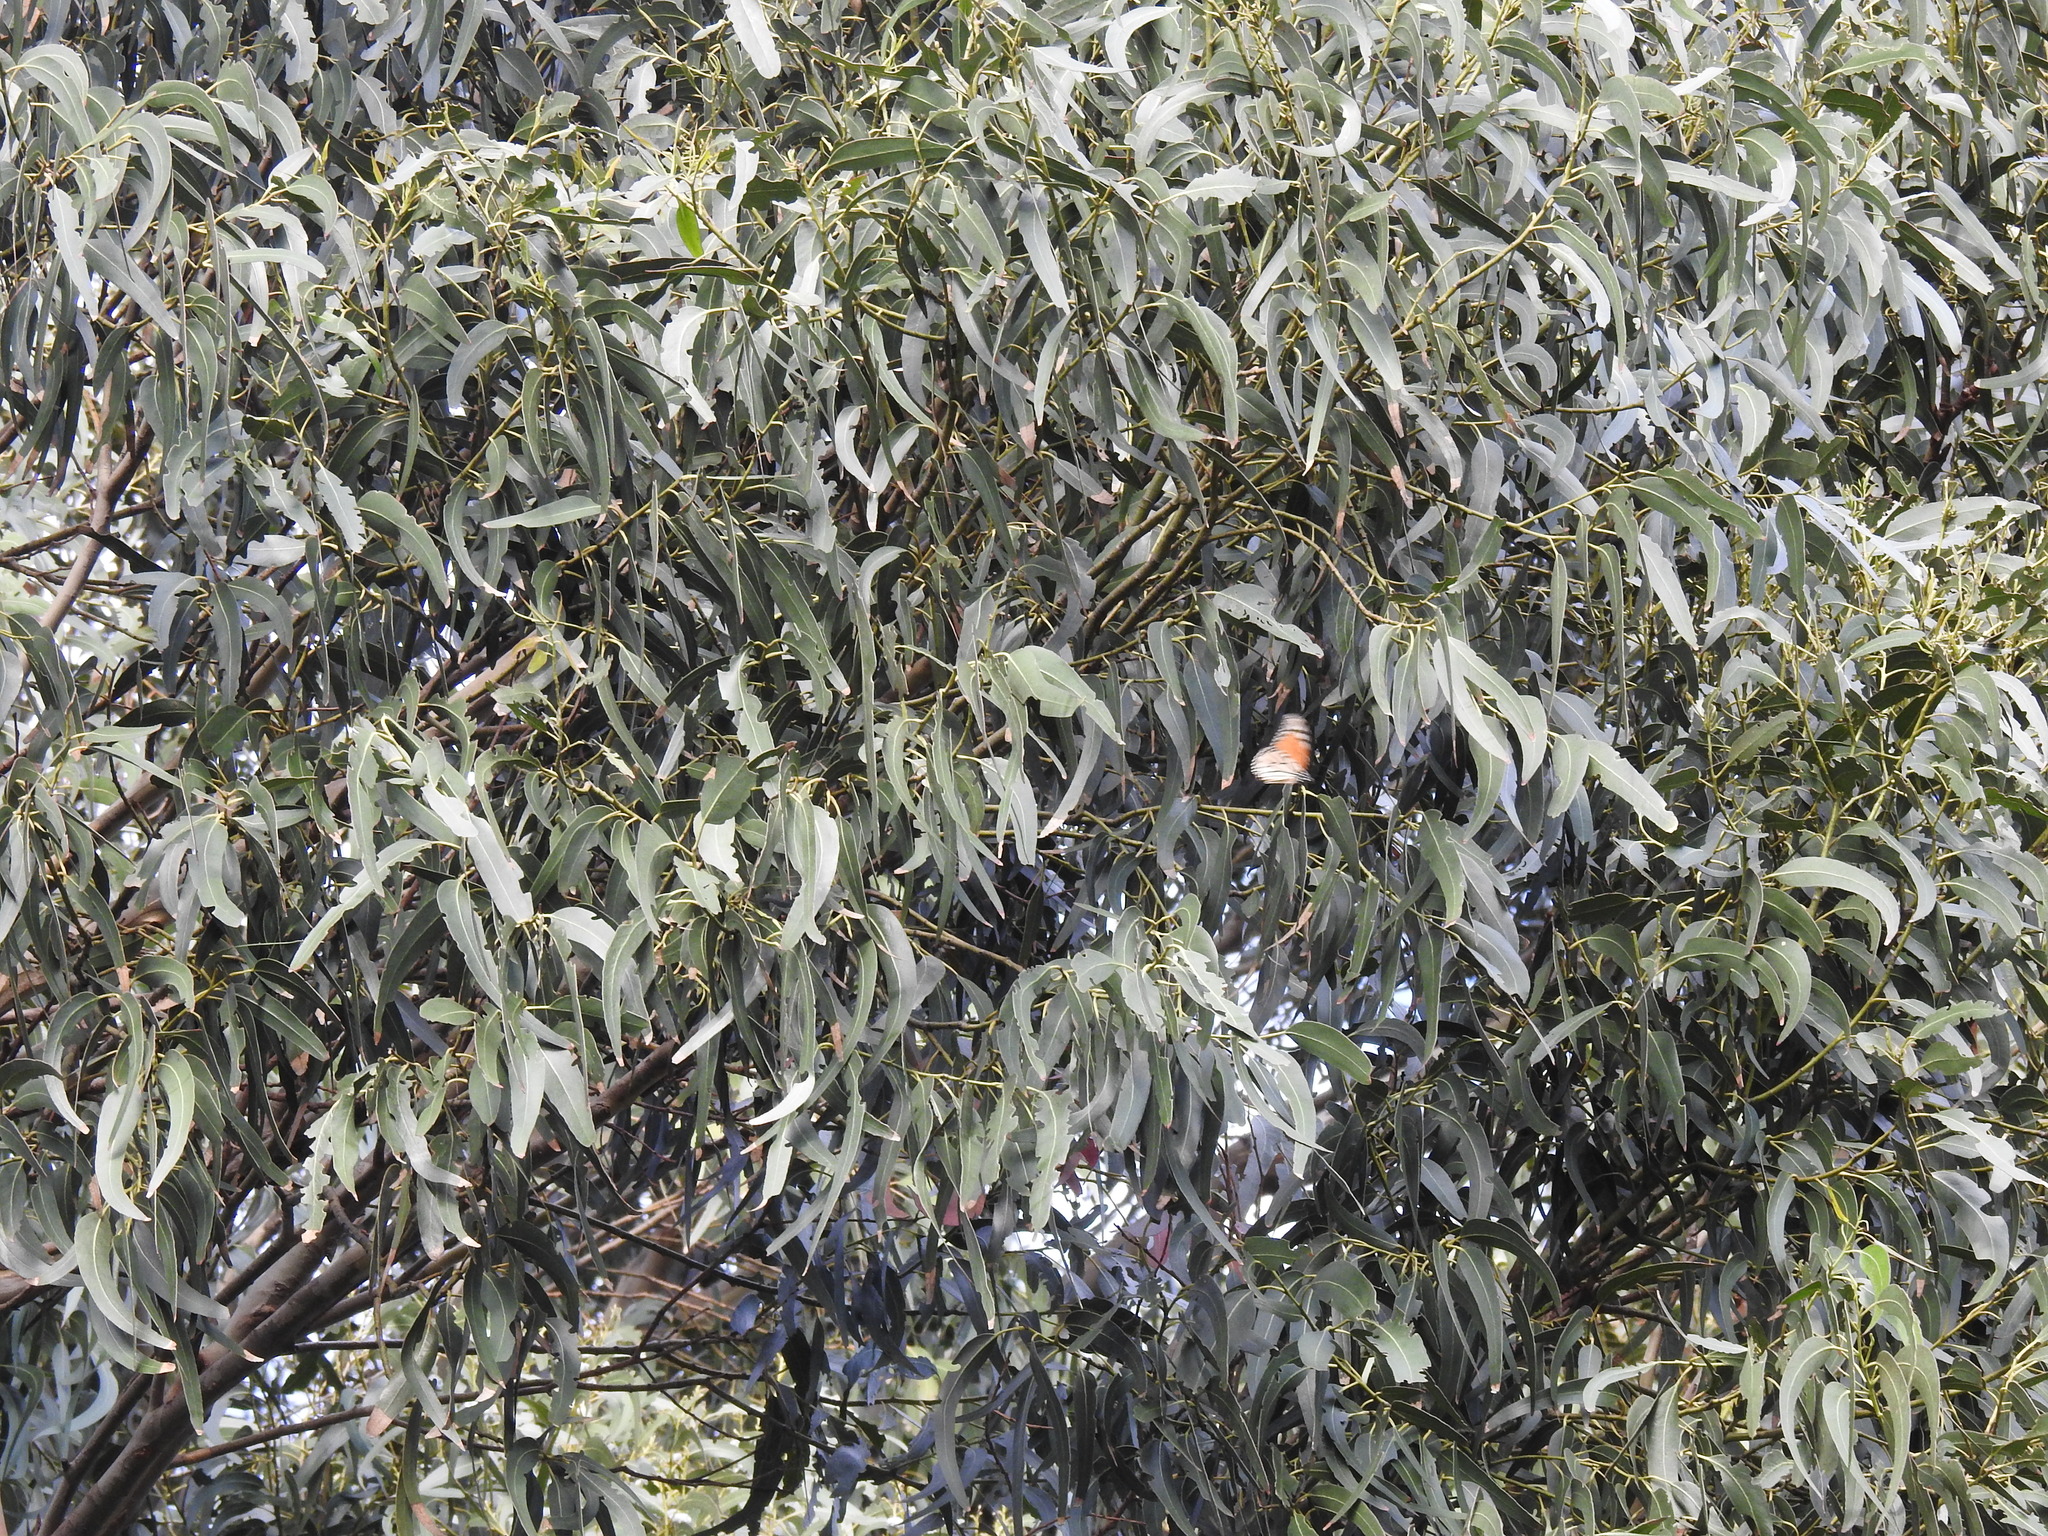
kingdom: Animalia
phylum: Arthropoda
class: Insecta
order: Lepidoptera
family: Nymphalidae
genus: Danaus
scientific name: Danaus plexippus
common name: Monarch
